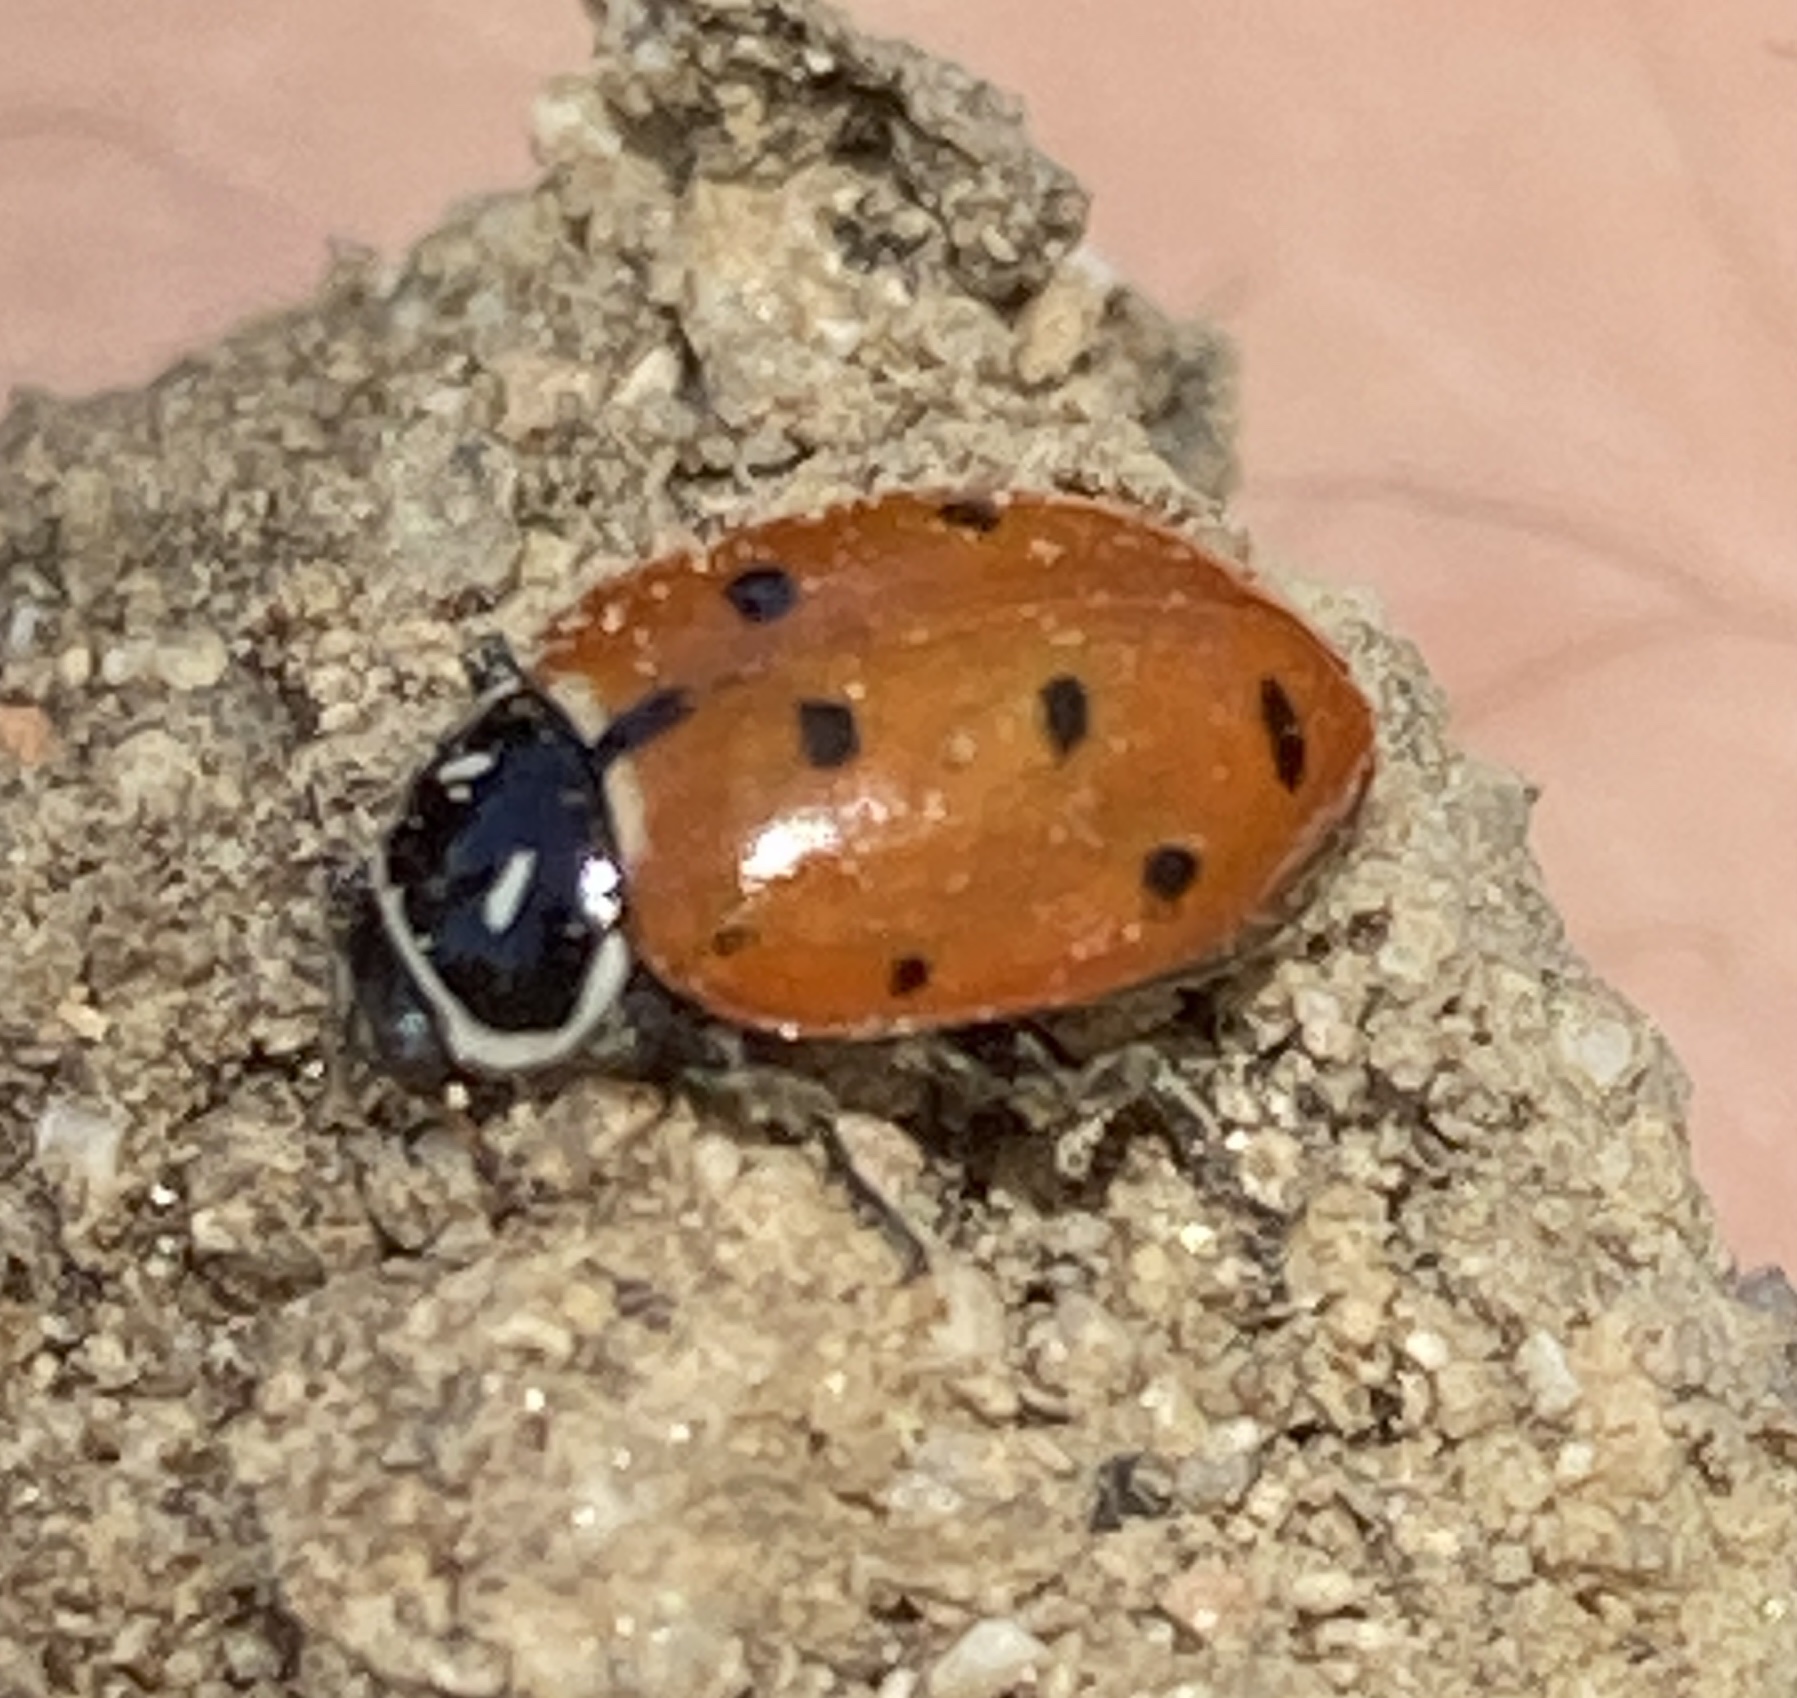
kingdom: Animalia
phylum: Arthropoda
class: Insecta
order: Coleoptera
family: Coccinellidae
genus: Hippodamia
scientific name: Hippodamia convergens
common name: Convergent lady beetle
